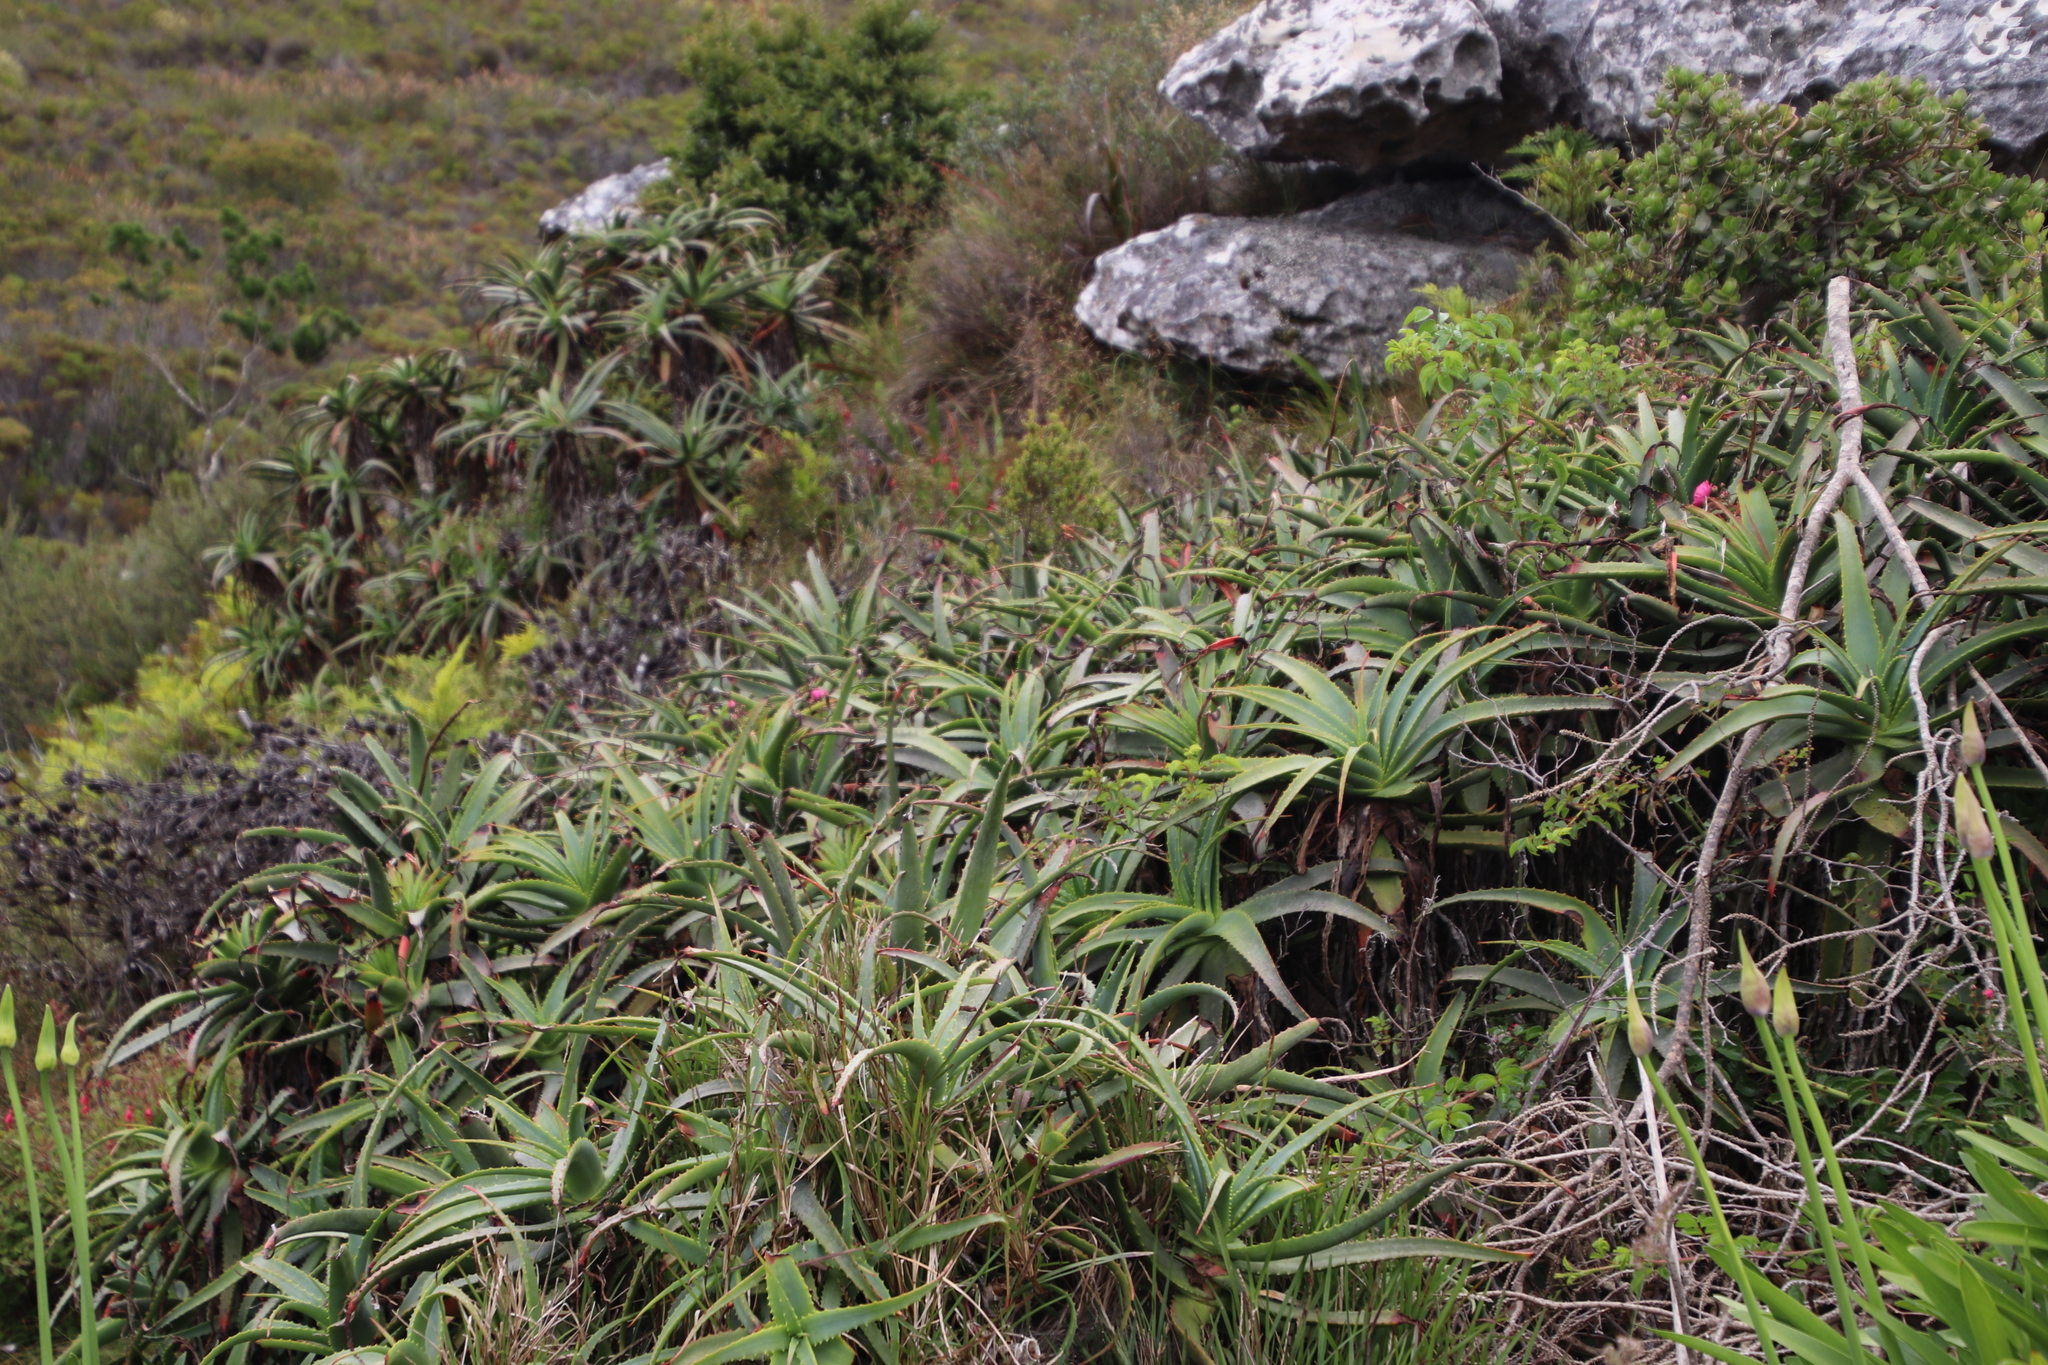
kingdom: Plantae
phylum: Tracheophyta
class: Liliopsida
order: Asparagales
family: Asphodelaceae
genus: Aloe
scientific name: Aloe arborescens
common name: Candelabra aloe
